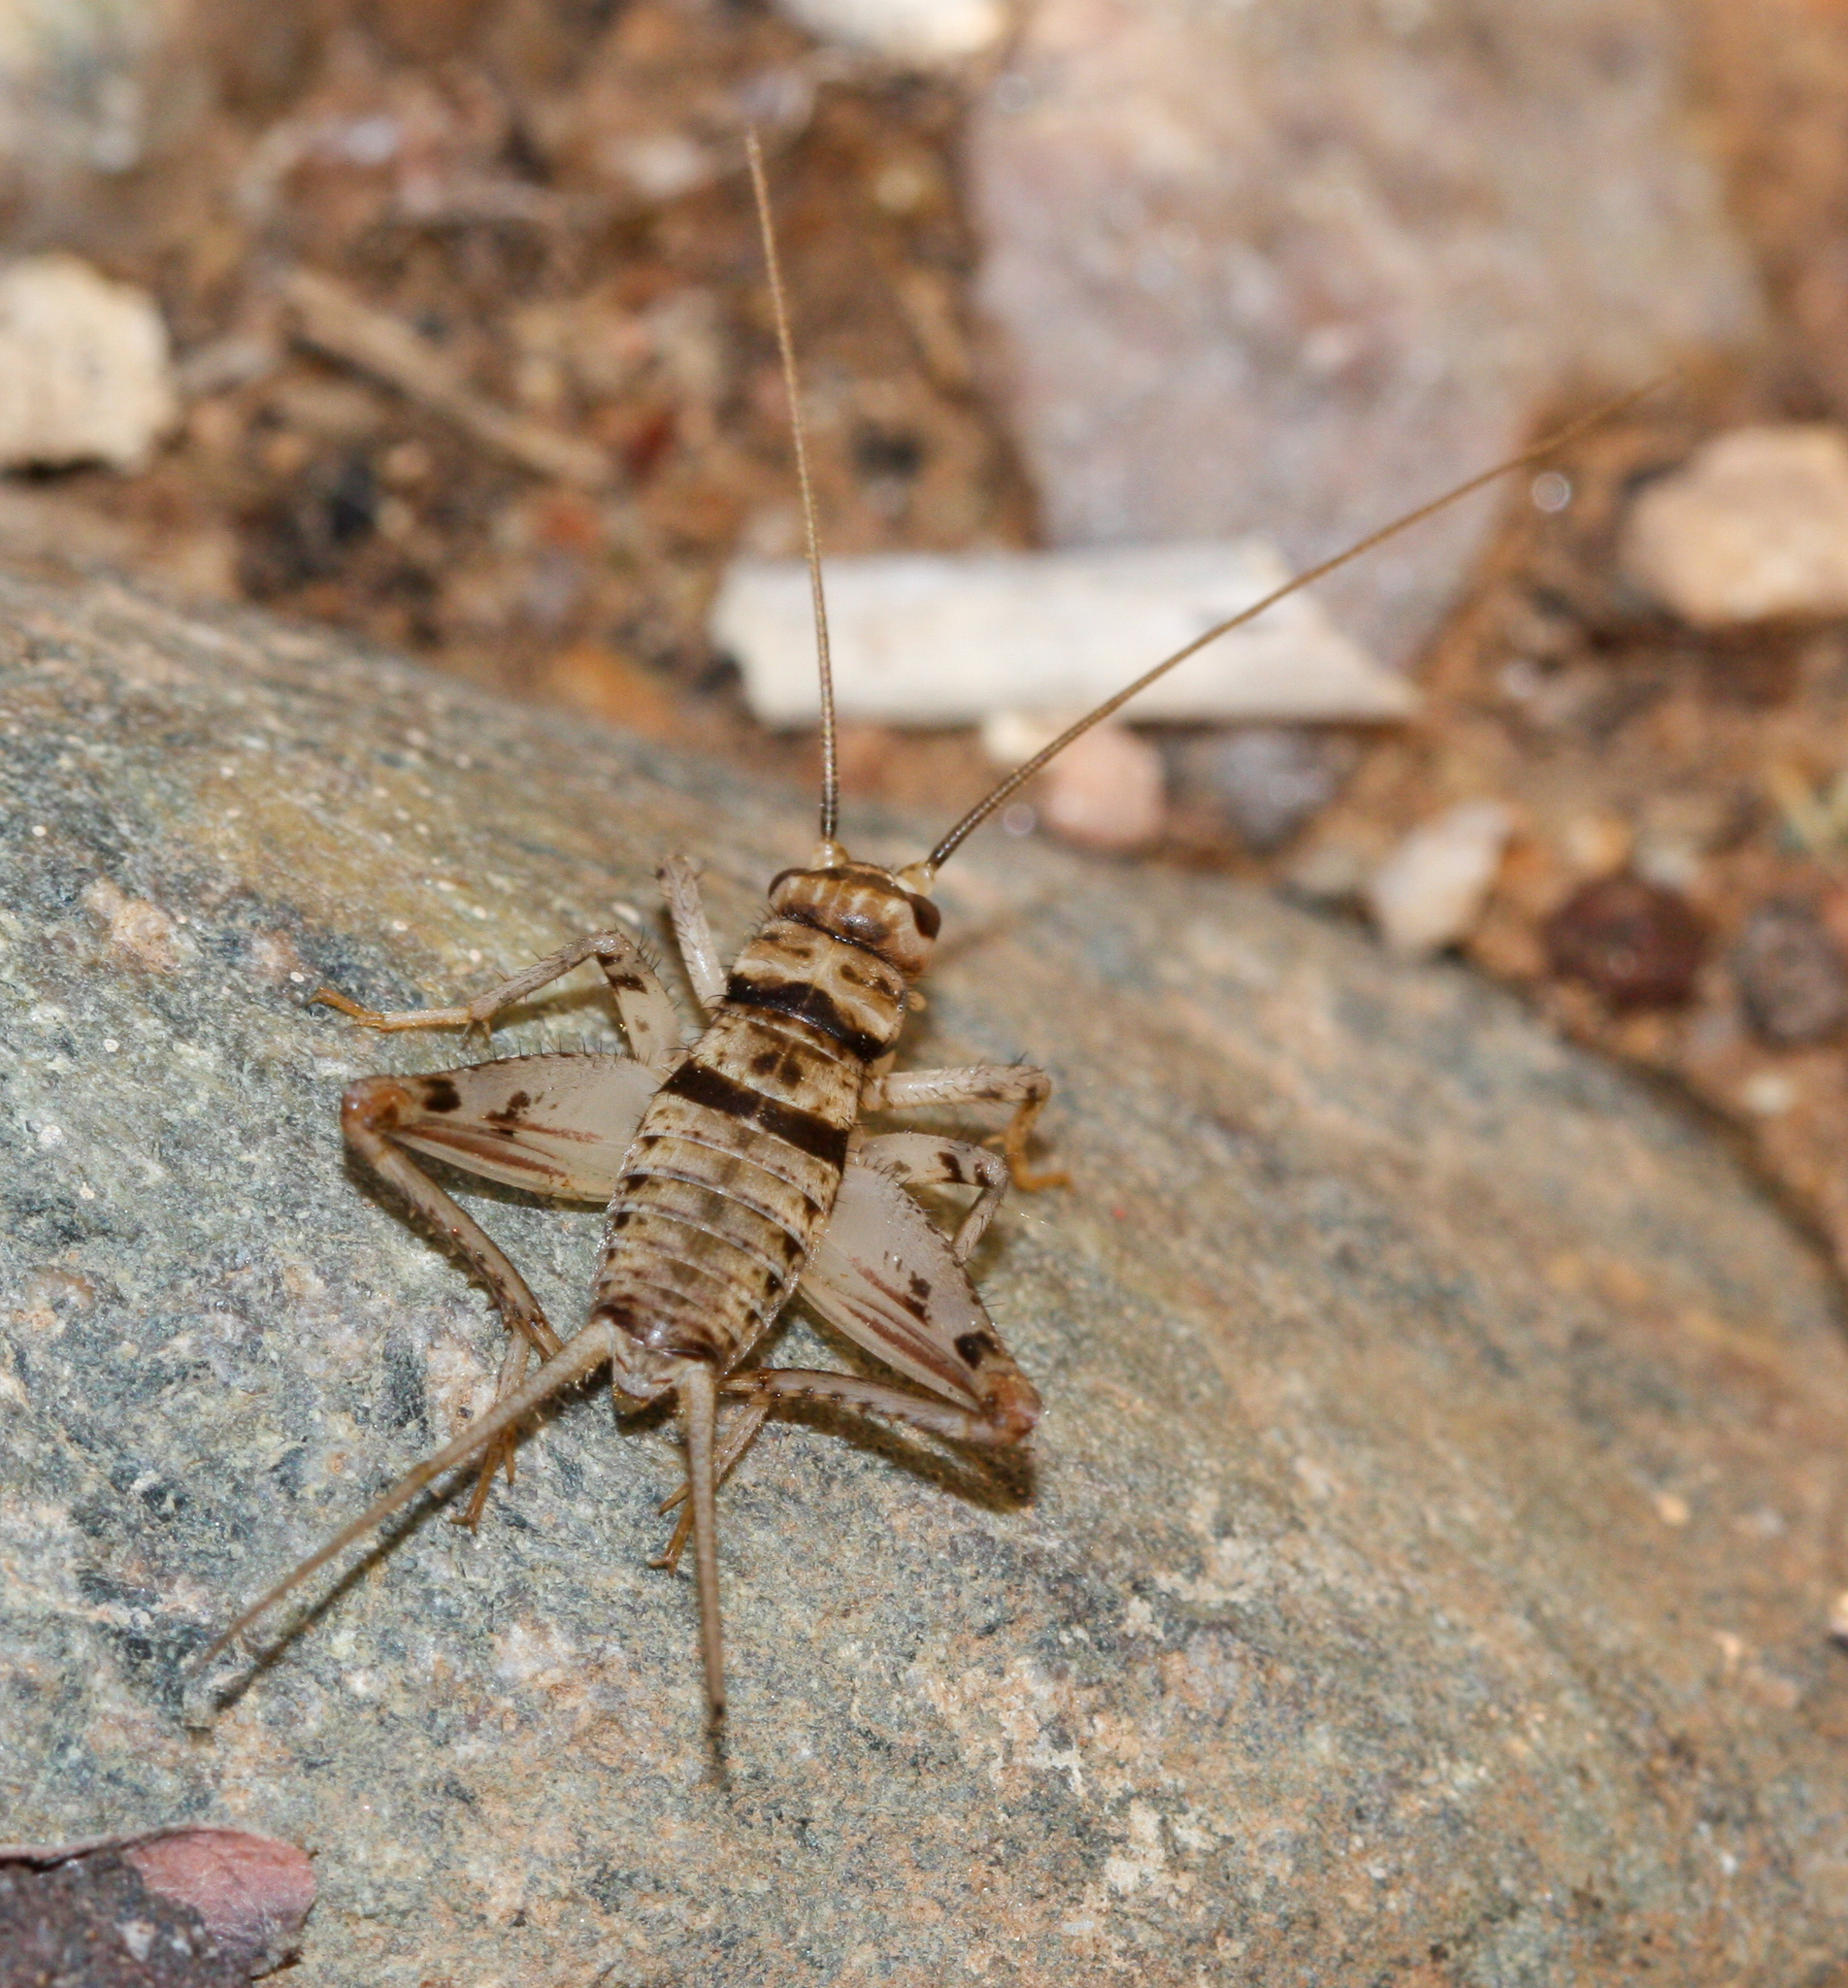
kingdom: Animalia
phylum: Arthropoda
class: Insecta
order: Orthoptera
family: Gryllidae
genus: Gryllodes
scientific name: Gryllodes sigillatus
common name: Tropical house cricket
